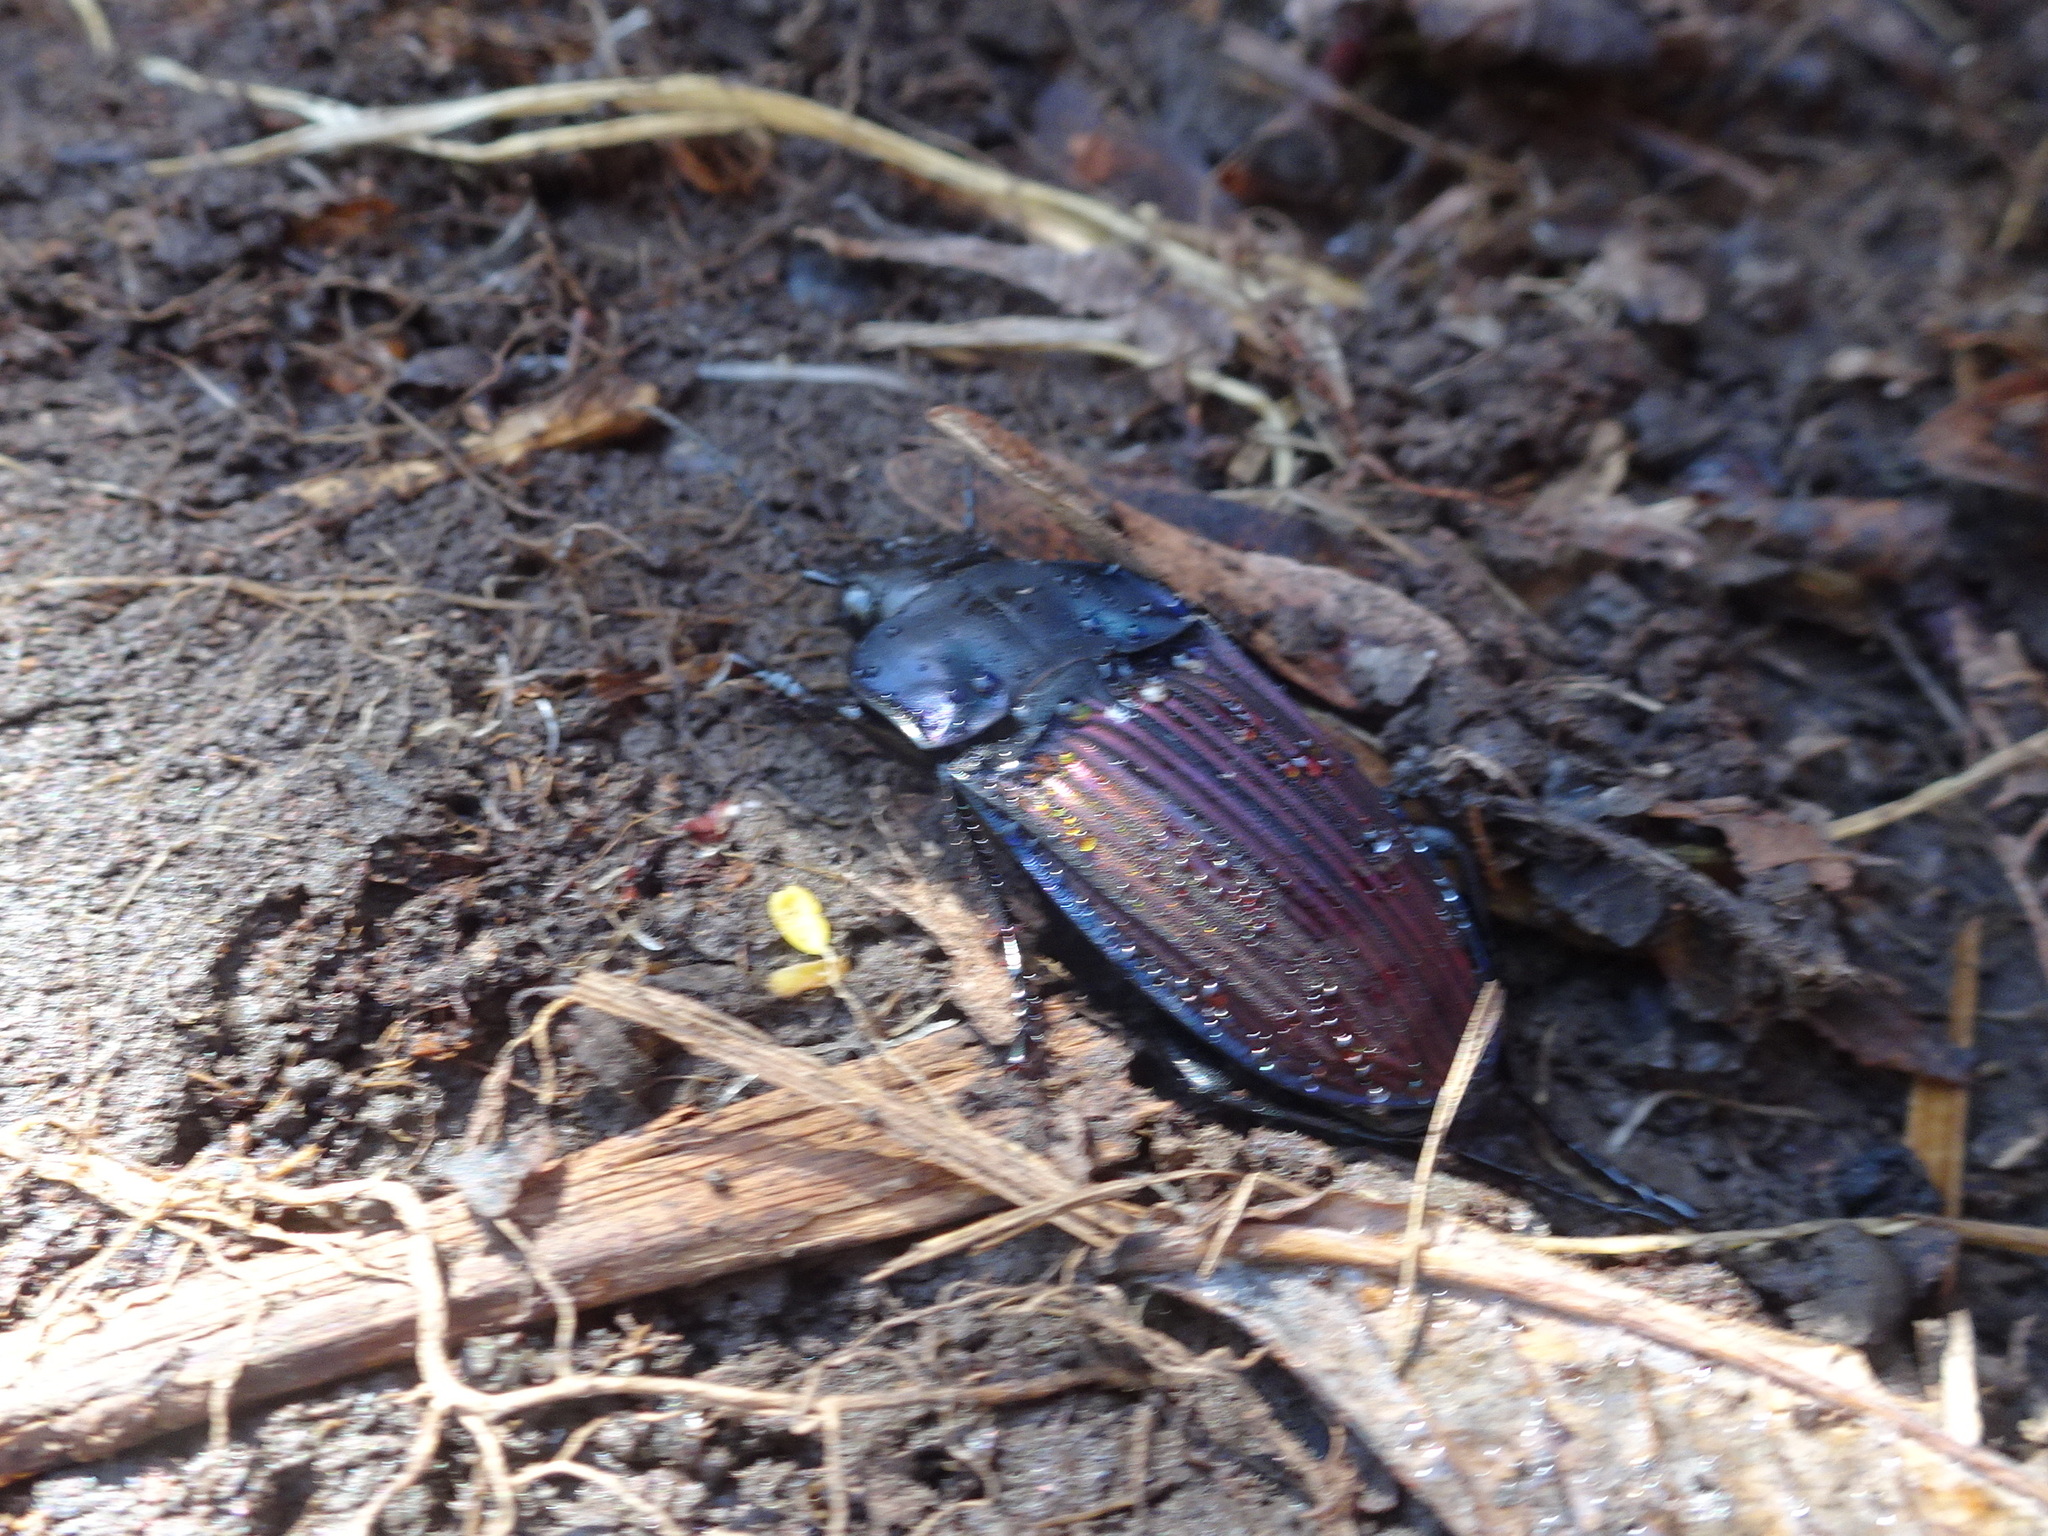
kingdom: Animalia
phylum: Arthropoda
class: Insecta
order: Coleoptera
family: Carabidae
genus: Dicaelus
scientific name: Dicaelus purpuratus
